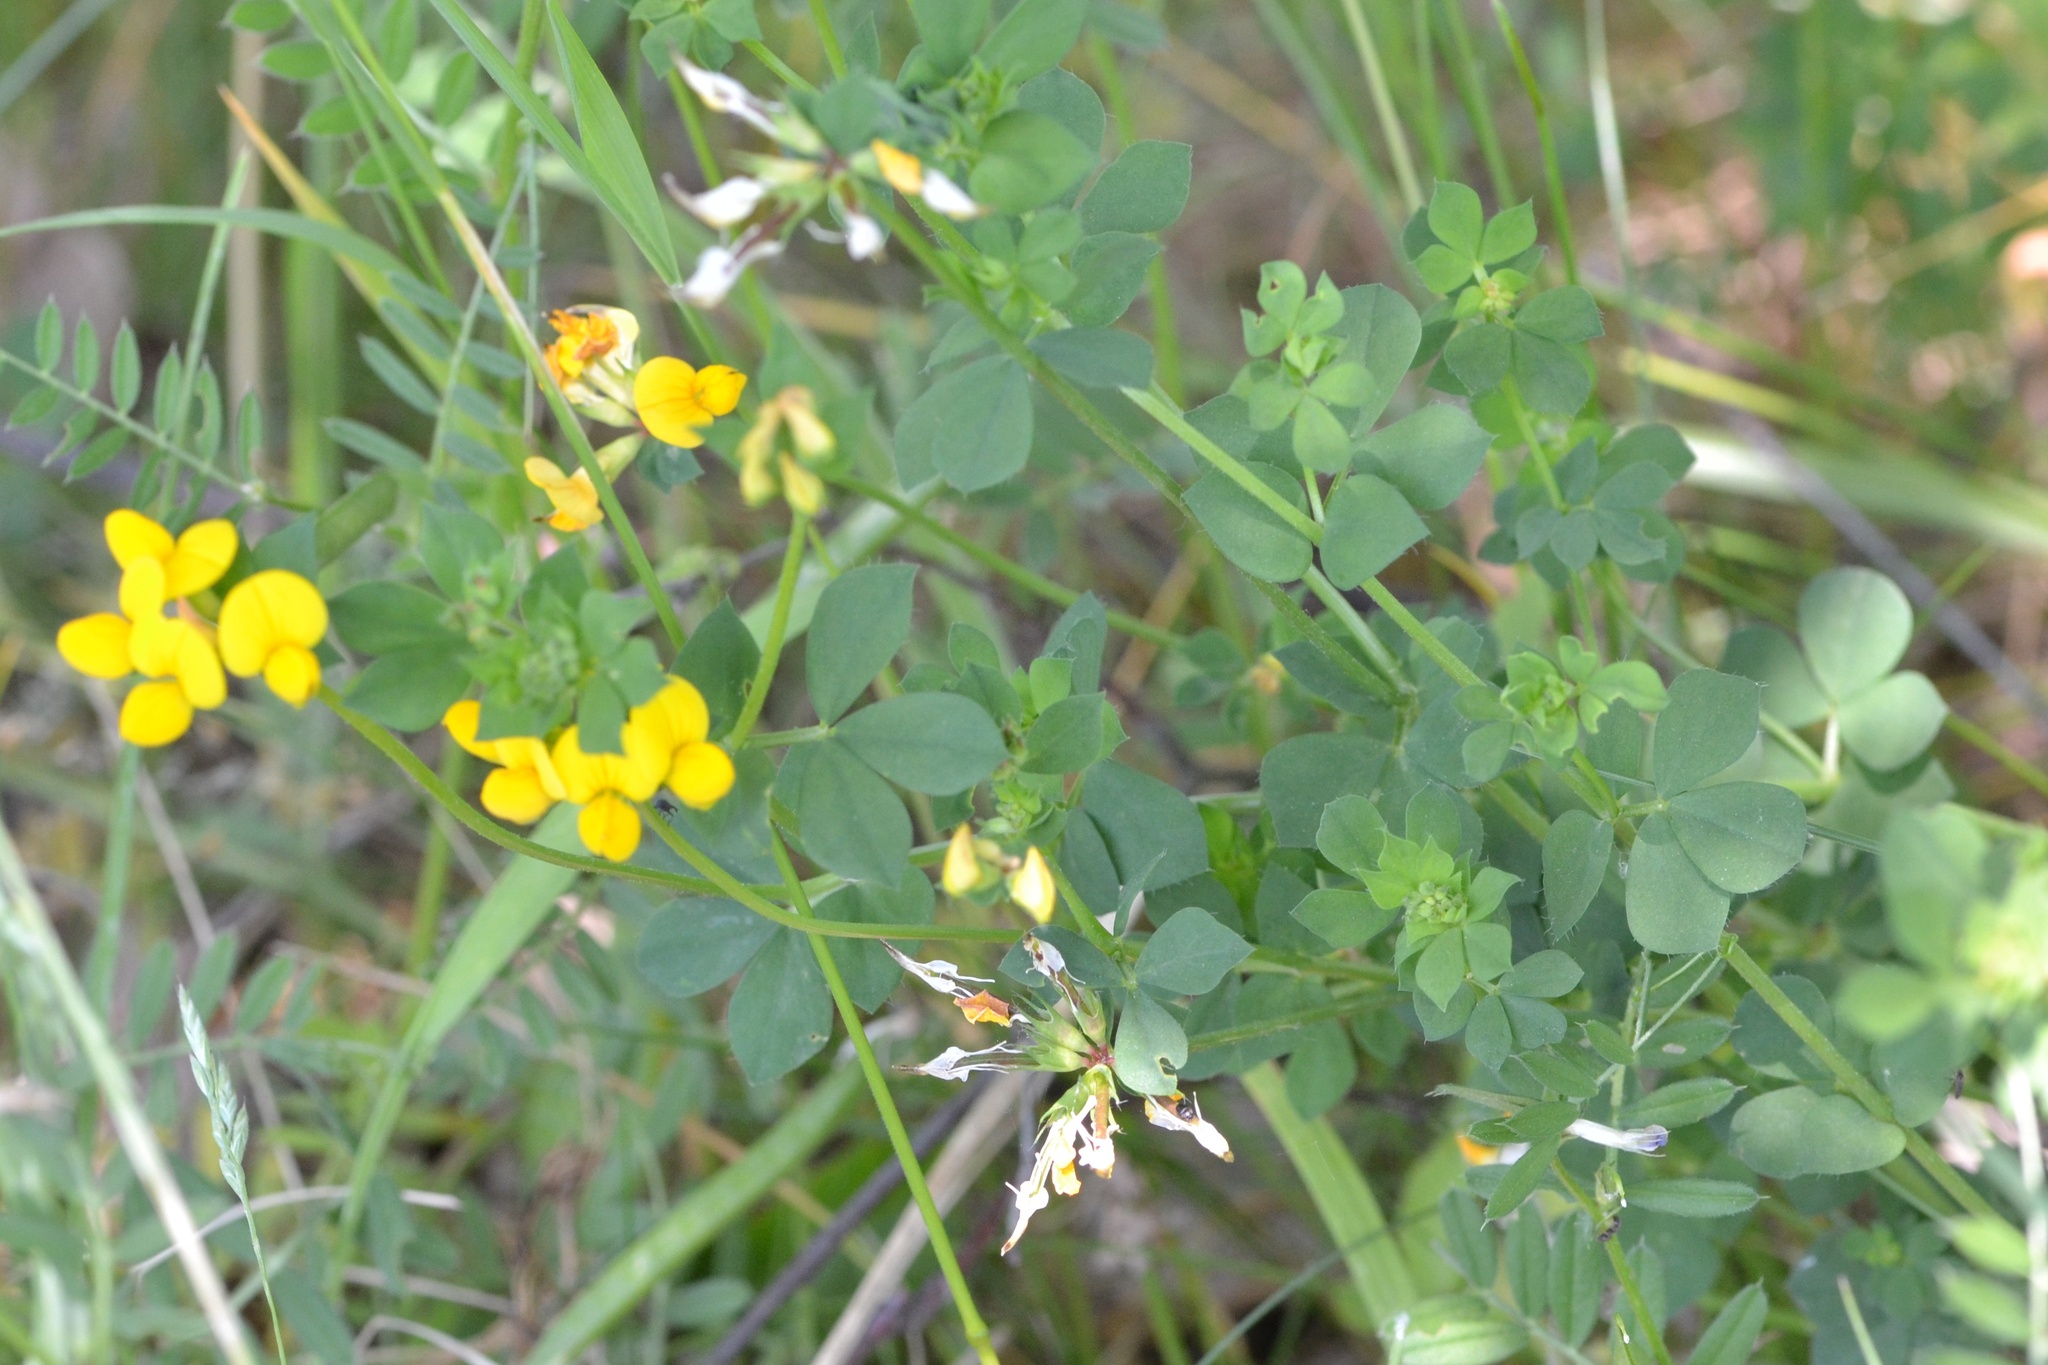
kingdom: Plantae
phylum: Tracheophyta
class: Magnoliopsida
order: Fabales
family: Fabaceae
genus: Lotus
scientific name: Lotus corniculatus
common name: Common bird's-foot-trefoil
